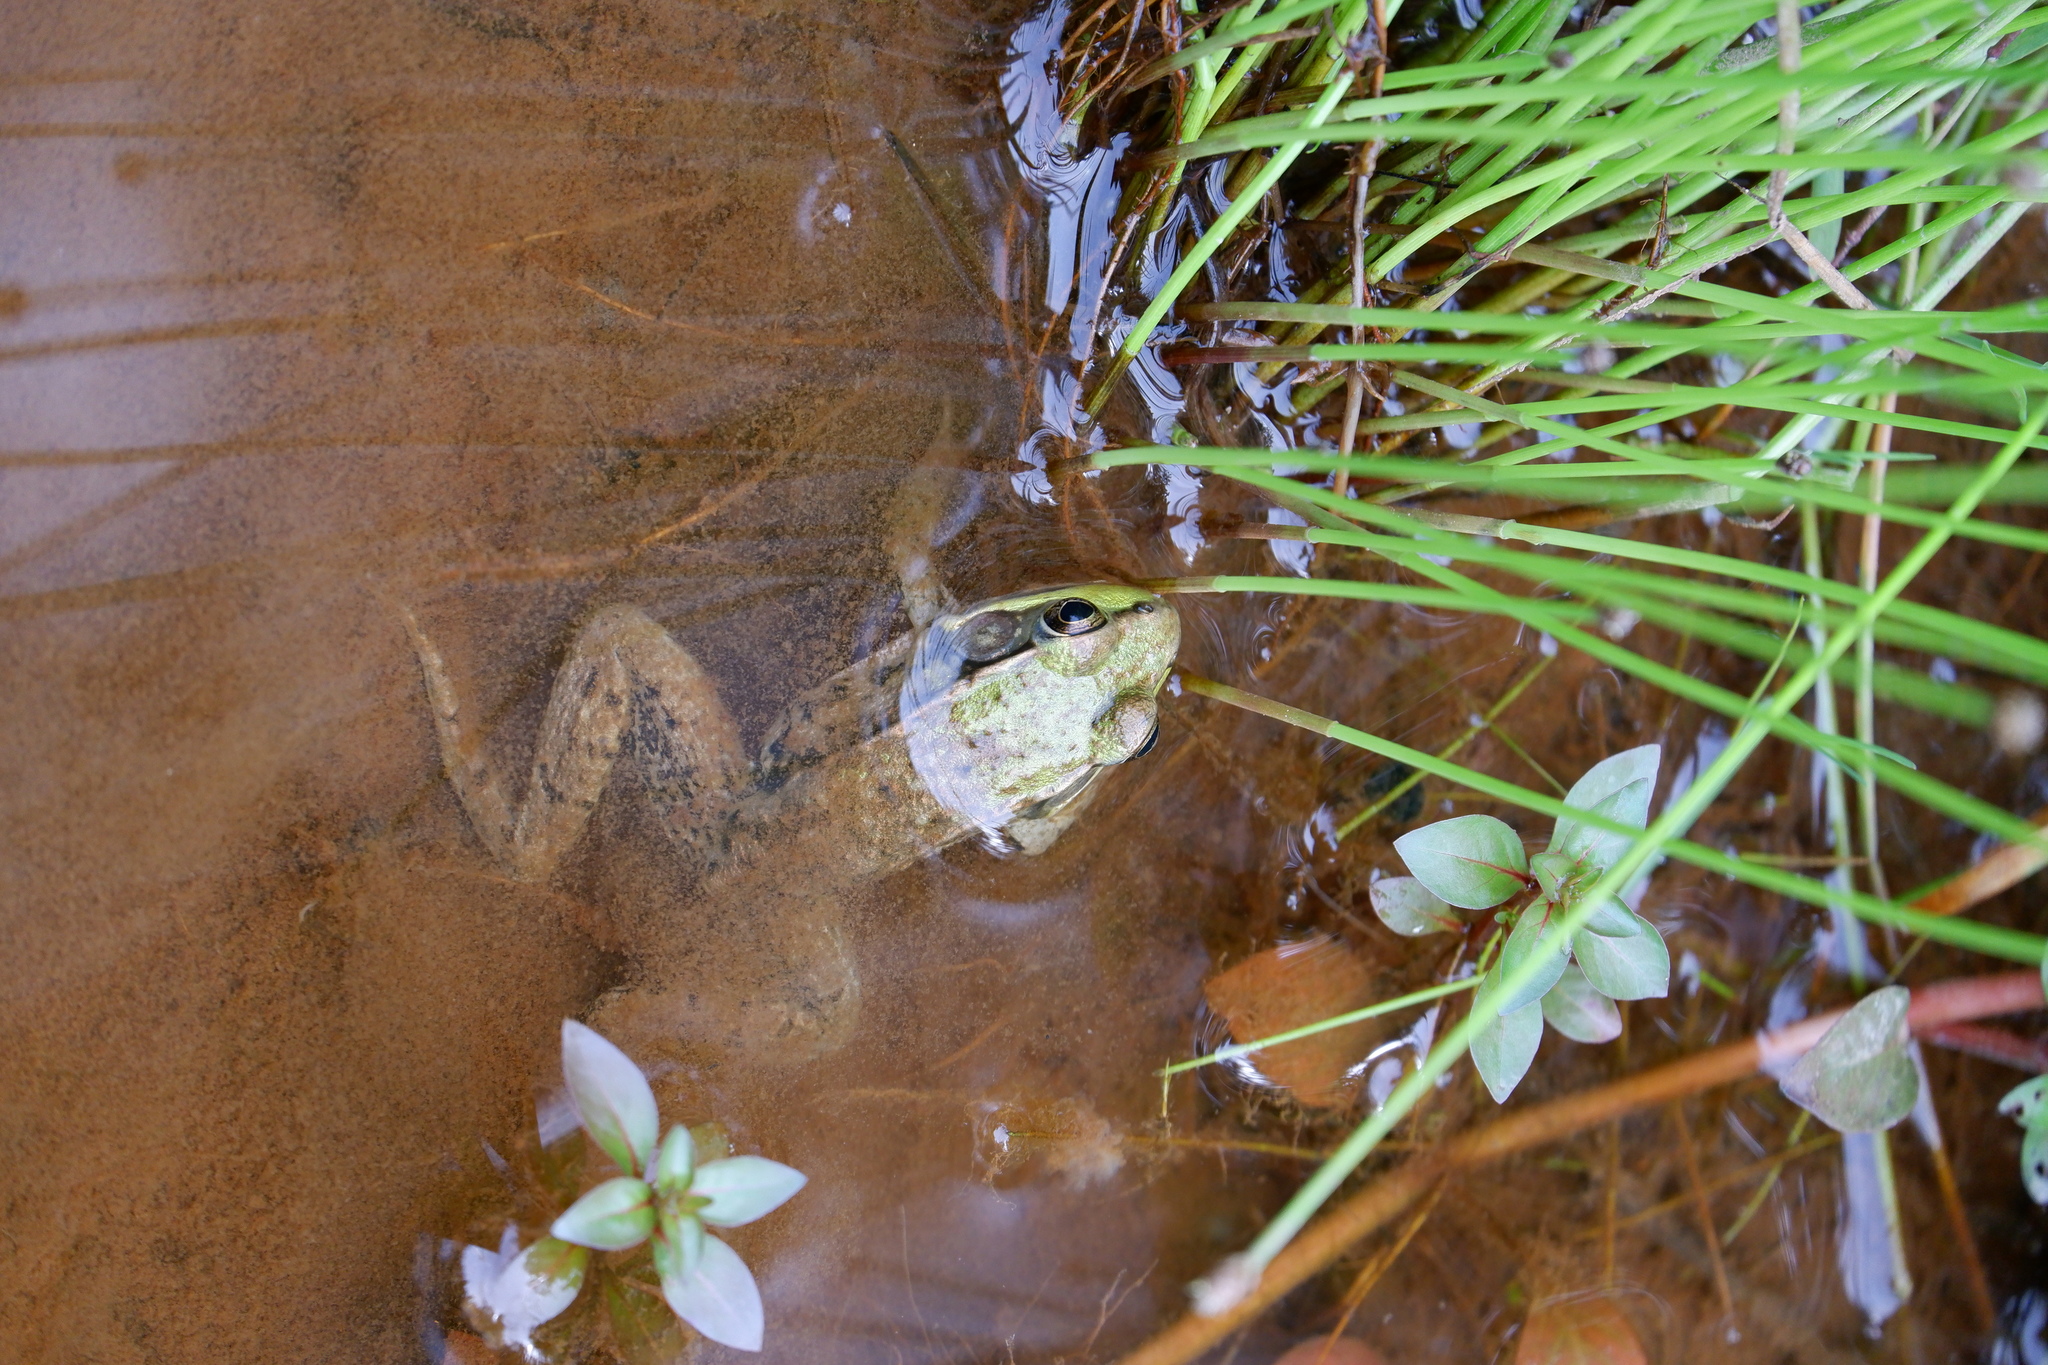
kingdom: Animalia
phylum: Chordata
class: Amphibia
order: Anura
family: Ranidae
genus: Lithobates
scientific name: Lithobates clamitans
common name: Green frog
